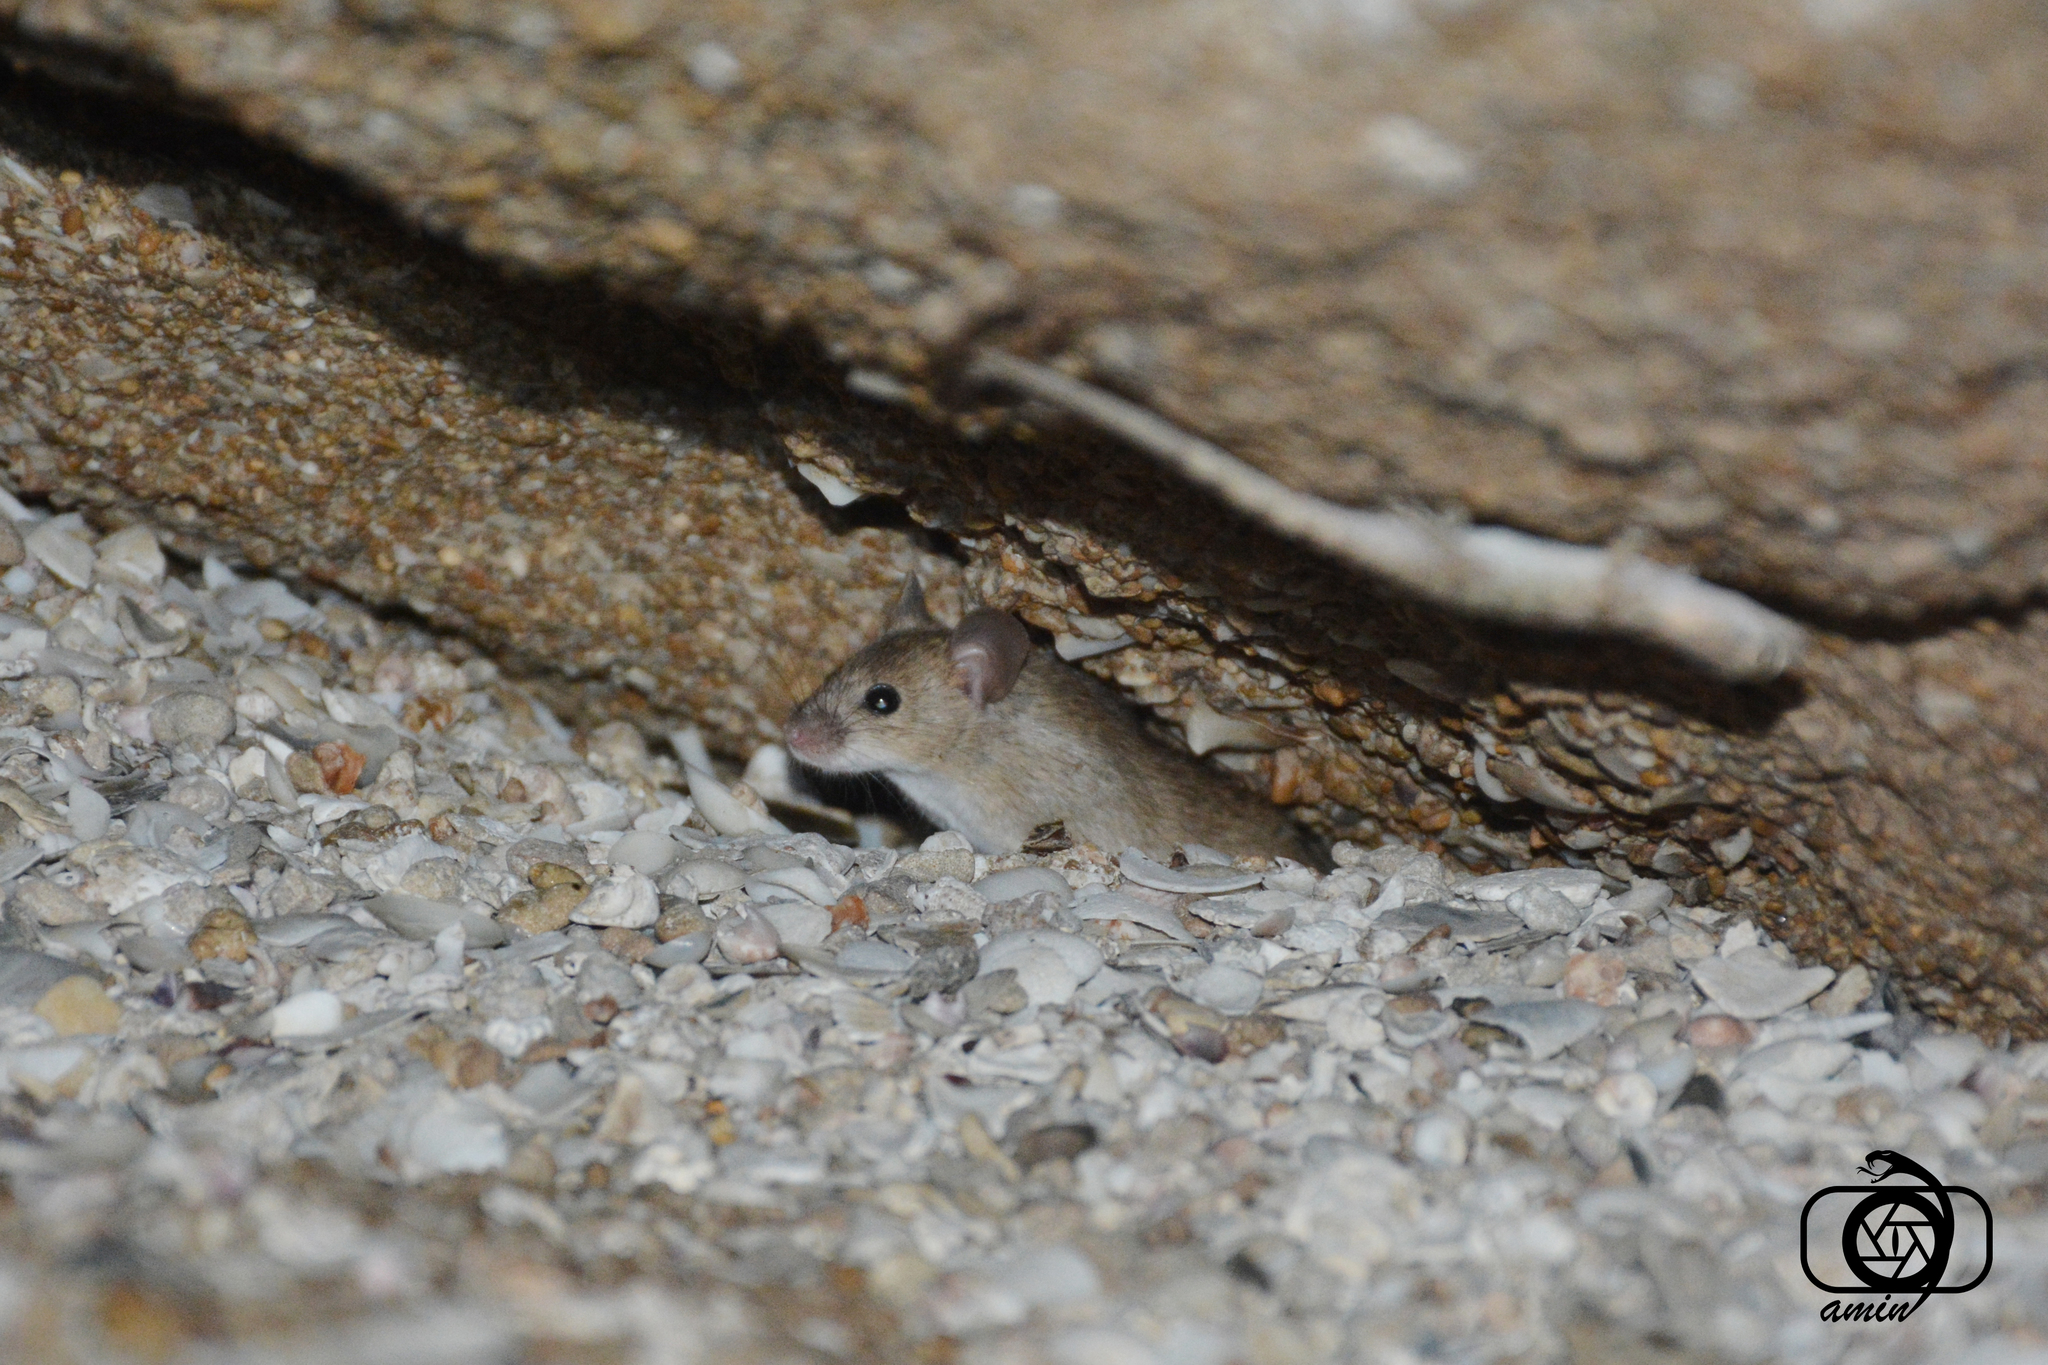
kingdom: Animalia
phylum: Chordata
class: Mammalia
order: Rodentia
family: Muridae
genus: Mus
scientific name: Mus musculus
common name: House mouse
